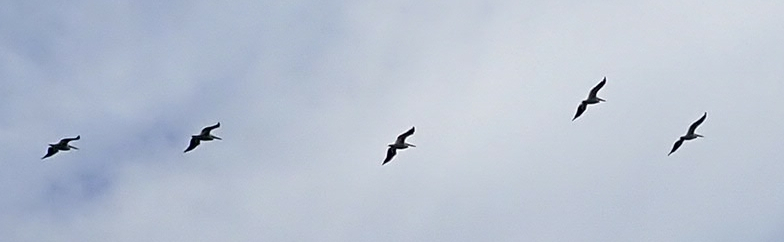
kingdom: Animalia
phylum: Chordata
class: Aves
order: Pelecaniformes
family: Pelecanidae
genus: Pelecanus
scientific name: Pelecanus erythrorhynchos
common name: American white pelican
